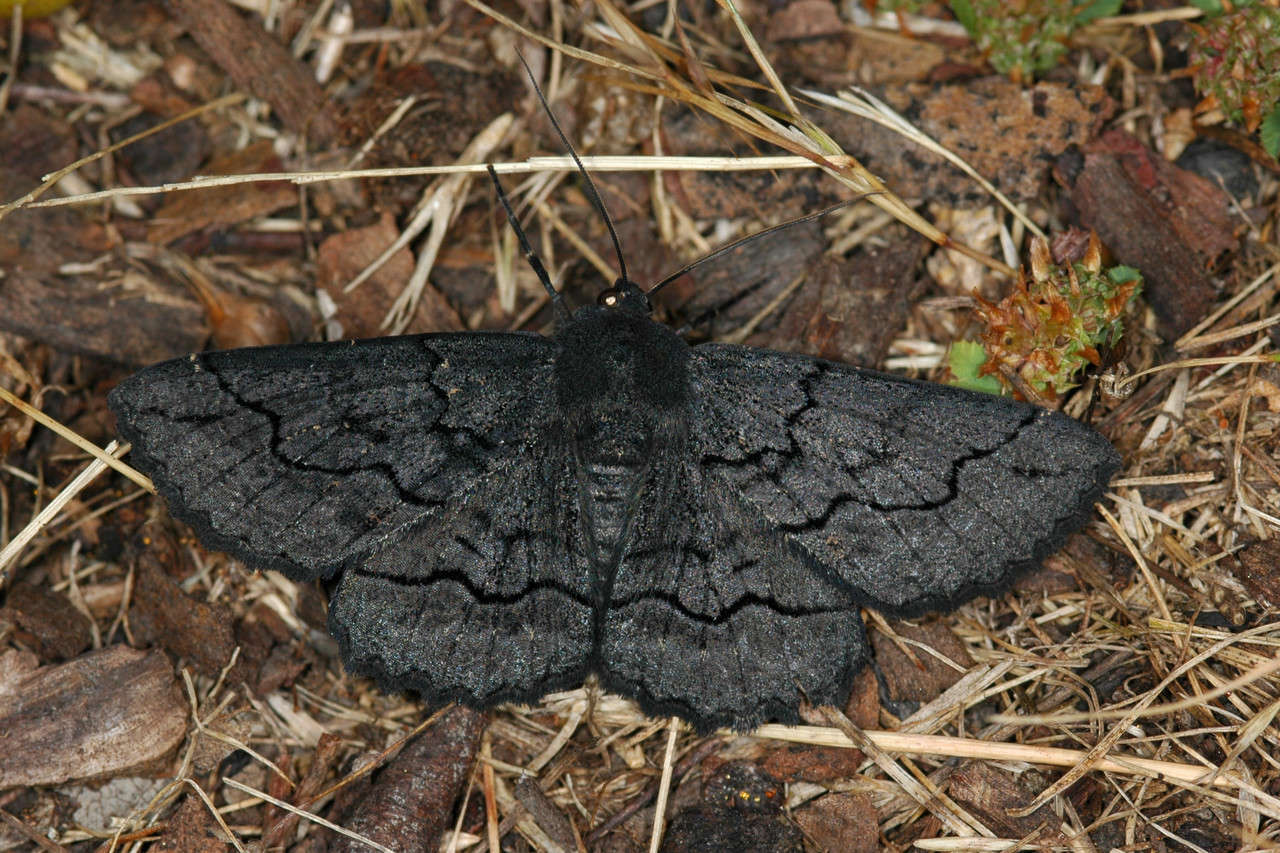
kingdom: Animalia
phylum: Arthropoda
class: Insecta
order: Lepidoptera
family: Geometridae
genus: Melanodes
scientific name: Melanodes anthracitaria
